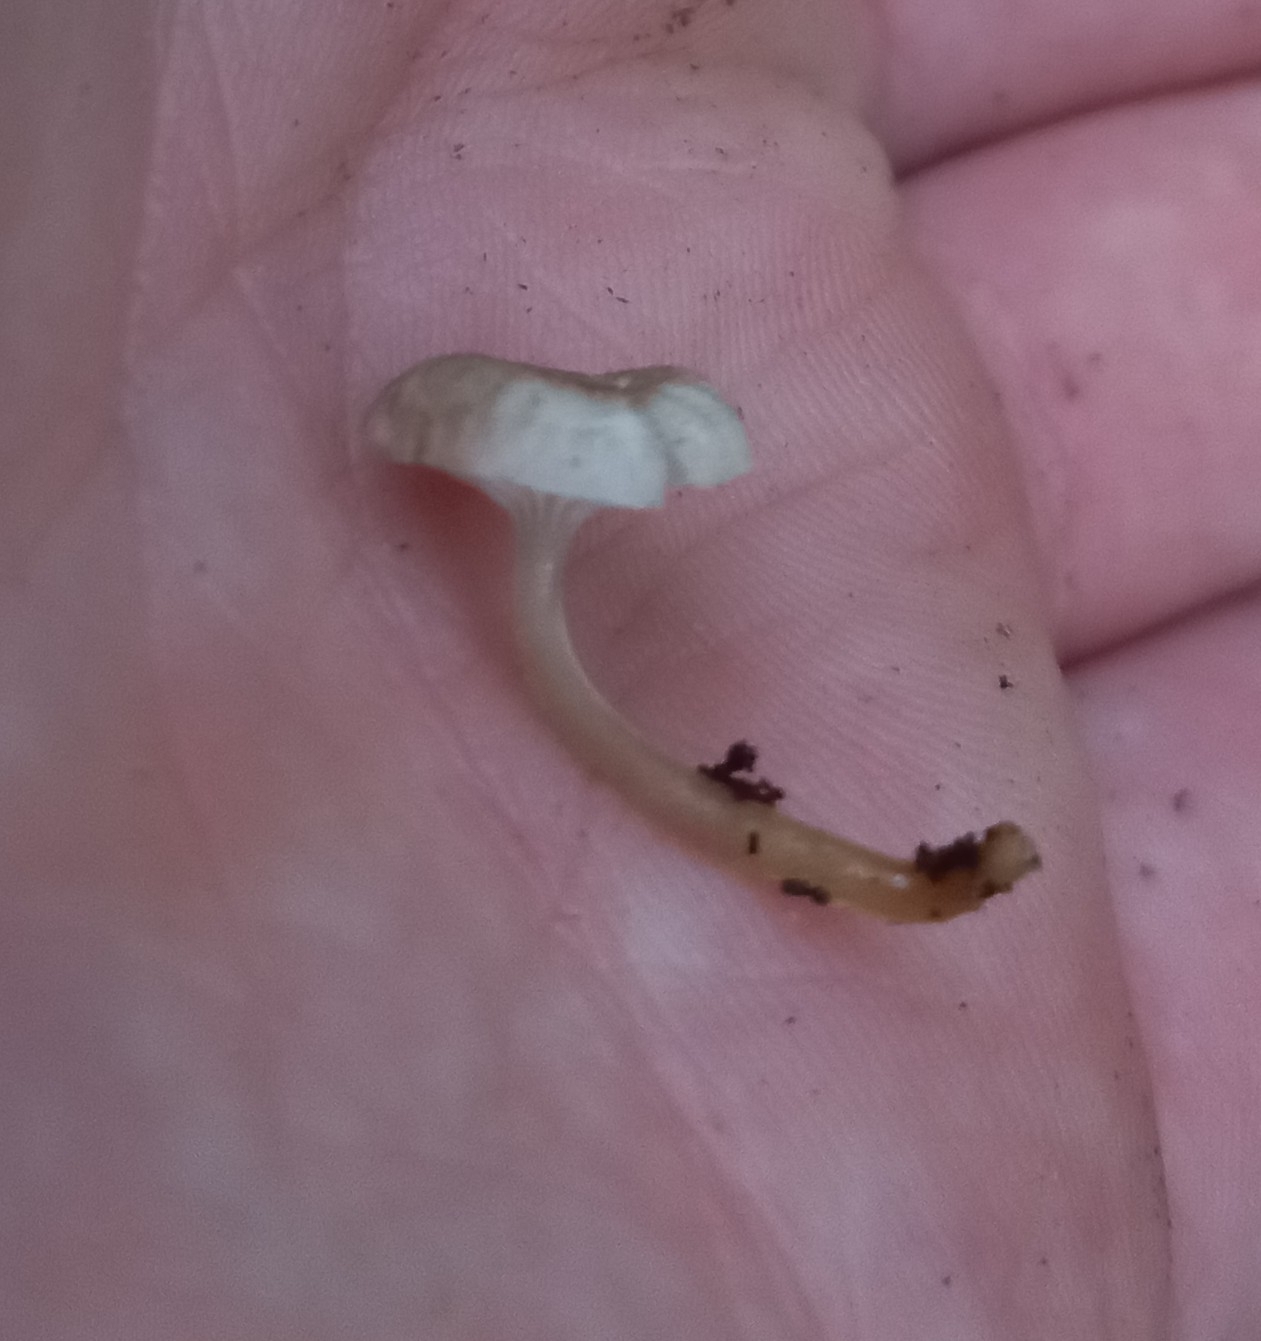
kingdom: Fungi
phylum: Basidiomycota
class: Agaricomycetes
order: Agaricales
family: Mycenaceae
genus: Roridomyces
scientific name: Roridomyces austrororidus
